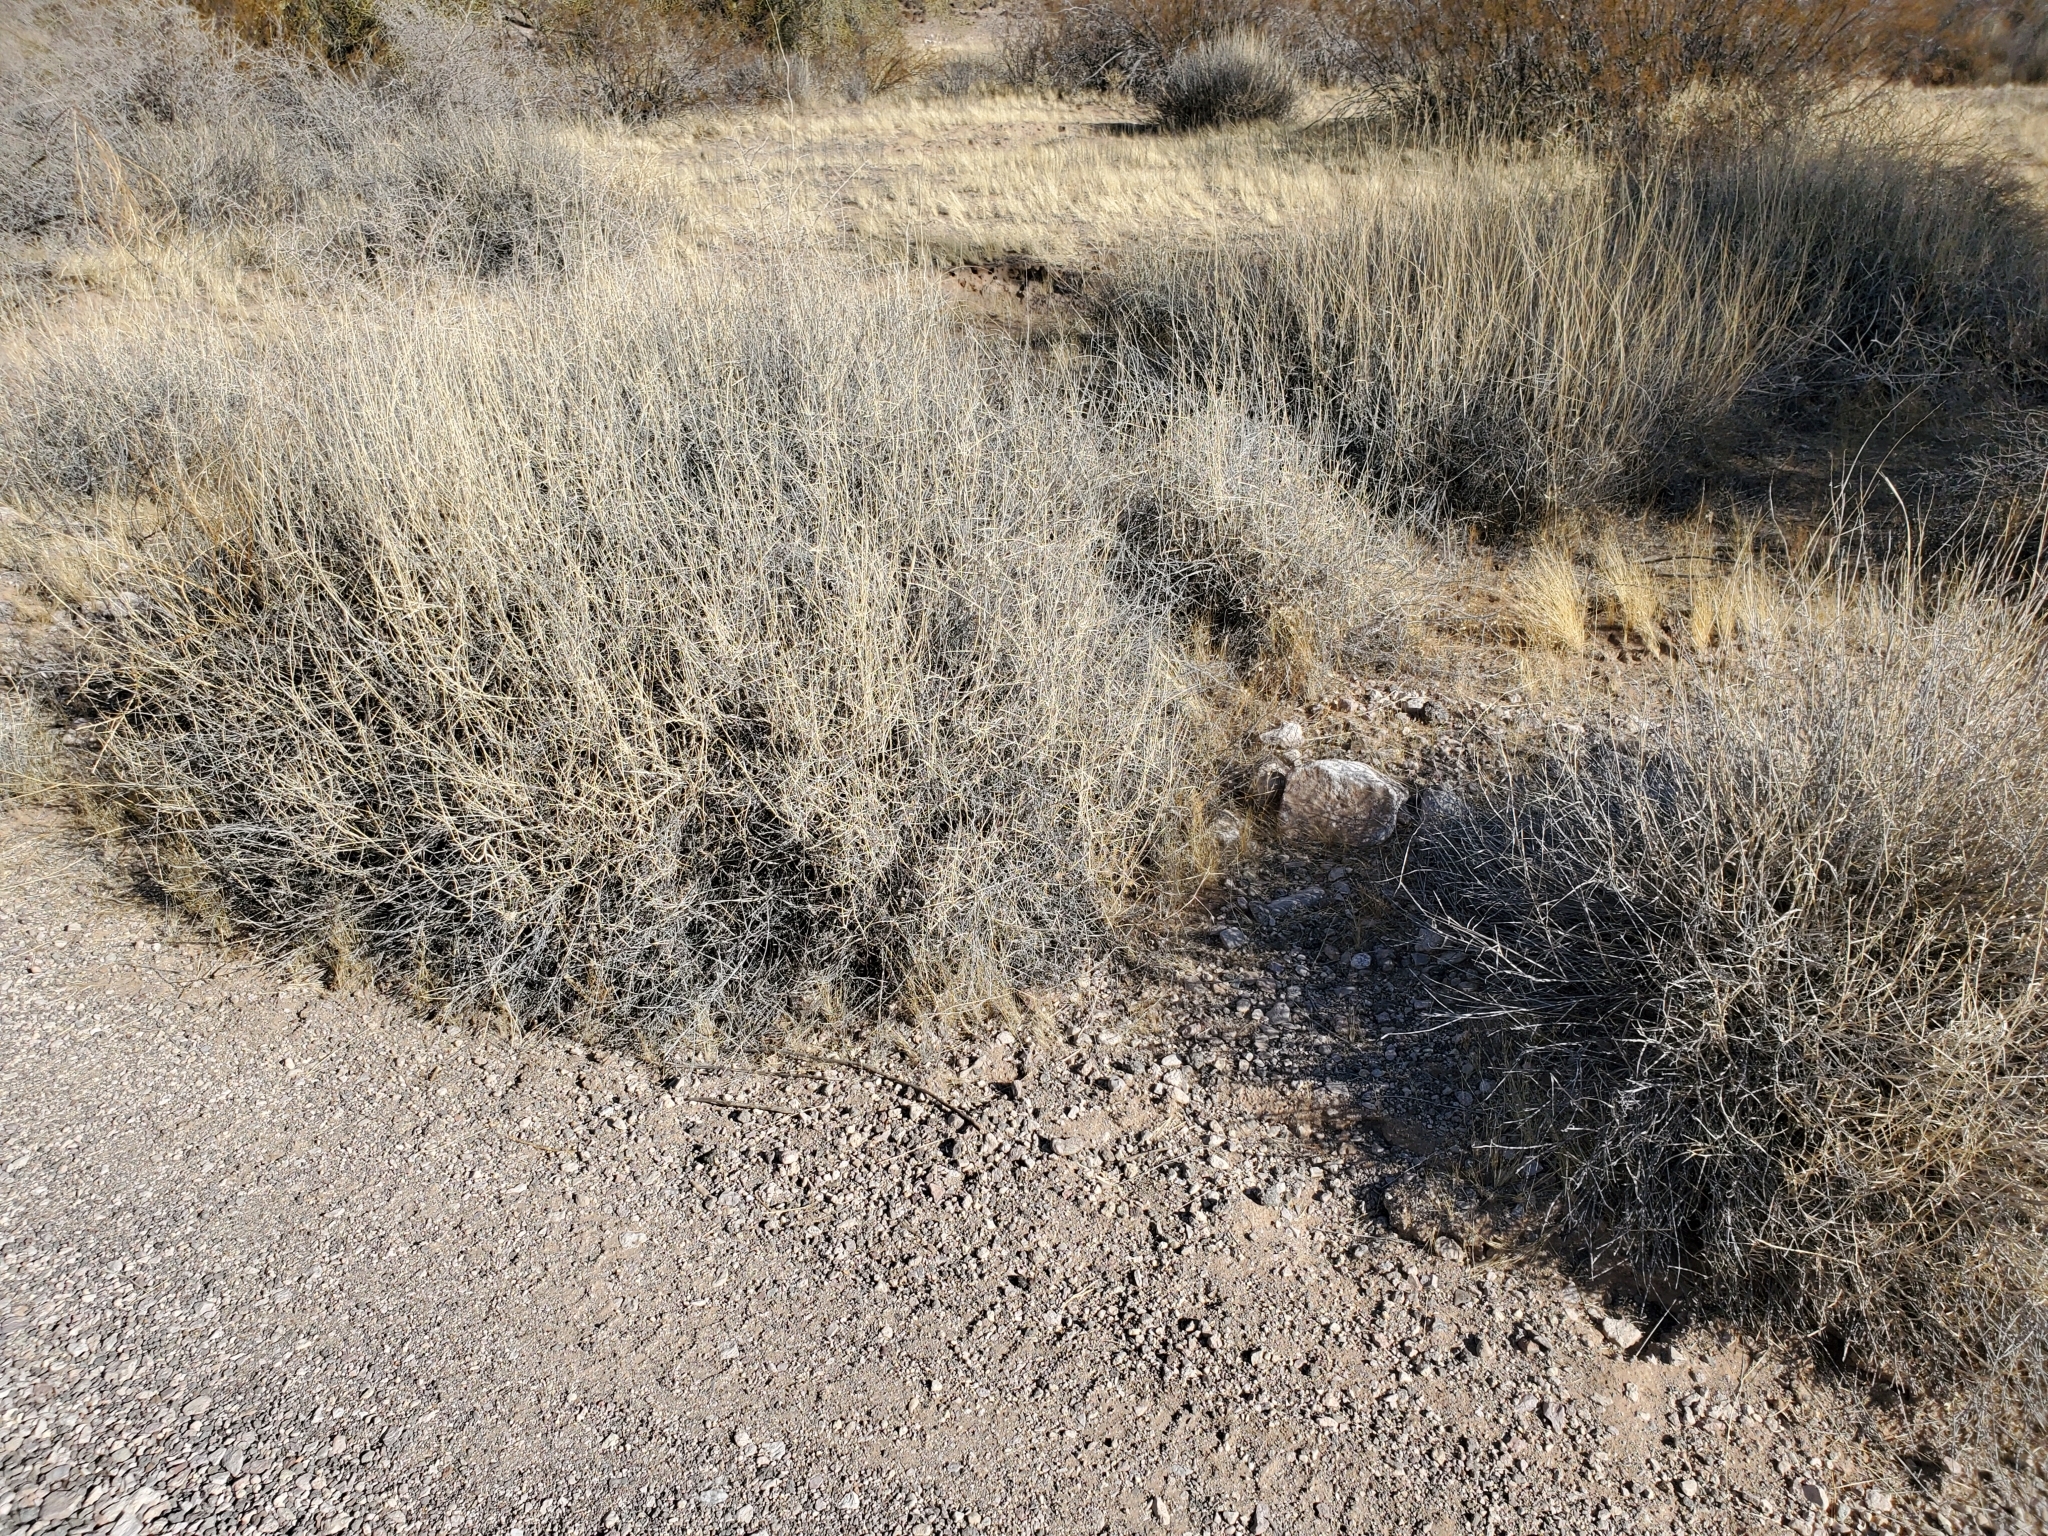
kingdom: Plantae
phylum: Tracheophyta
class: Liliopsida
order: Poales
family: Poaceae
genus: Hilaria
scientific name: Hilaria rigida
